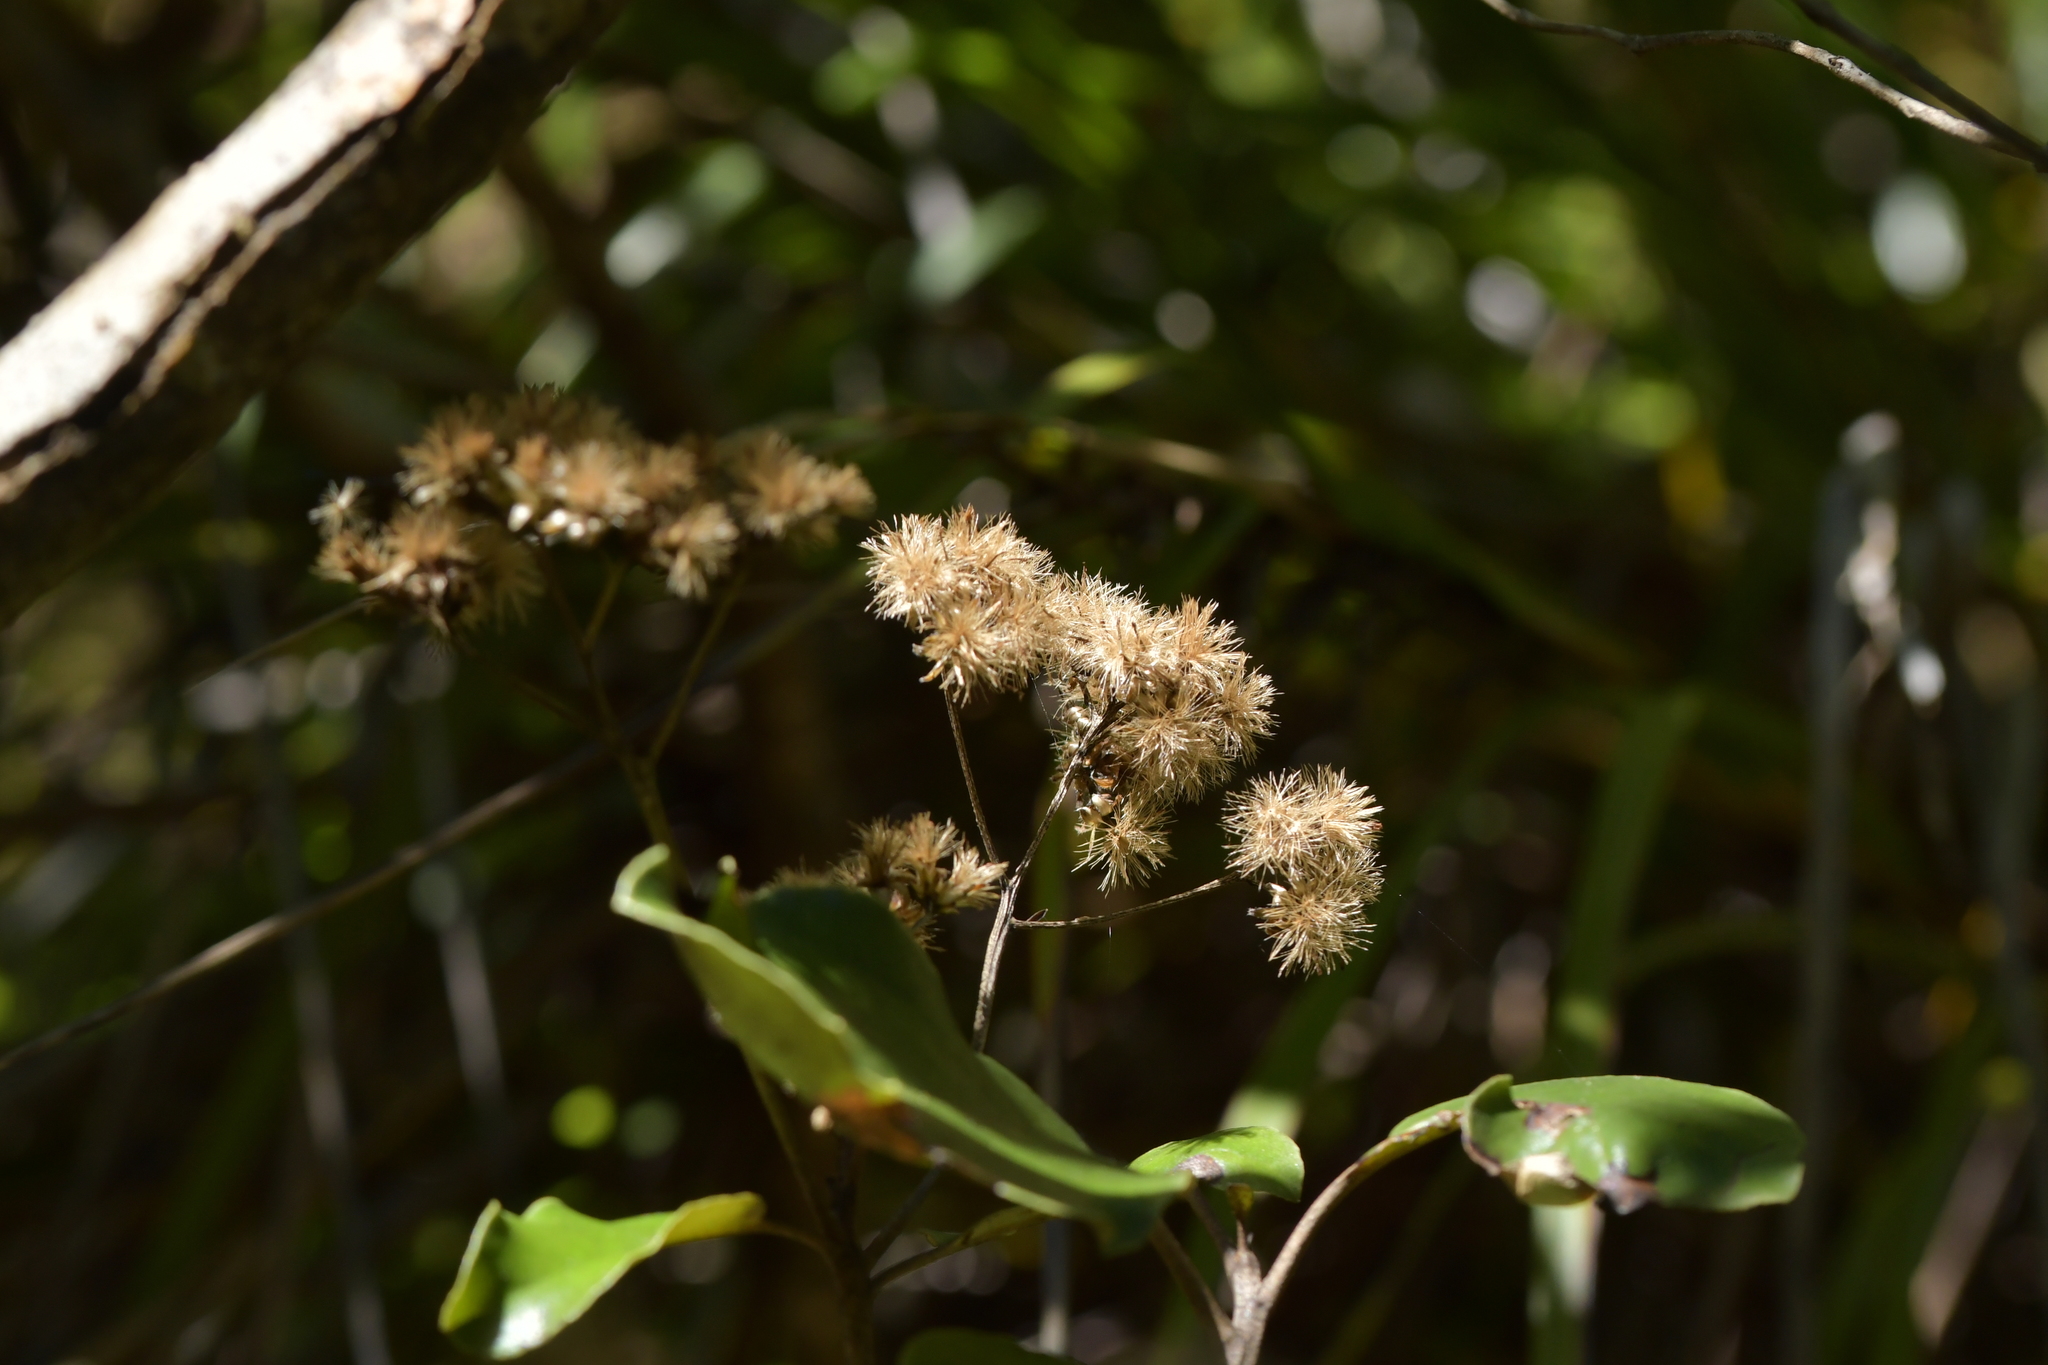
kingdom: Plantae
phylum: Tracheophyta
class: Magnoliopsida
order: Asterales
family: Asteraceae
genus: Olearia
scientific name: Olearia furfuracea
